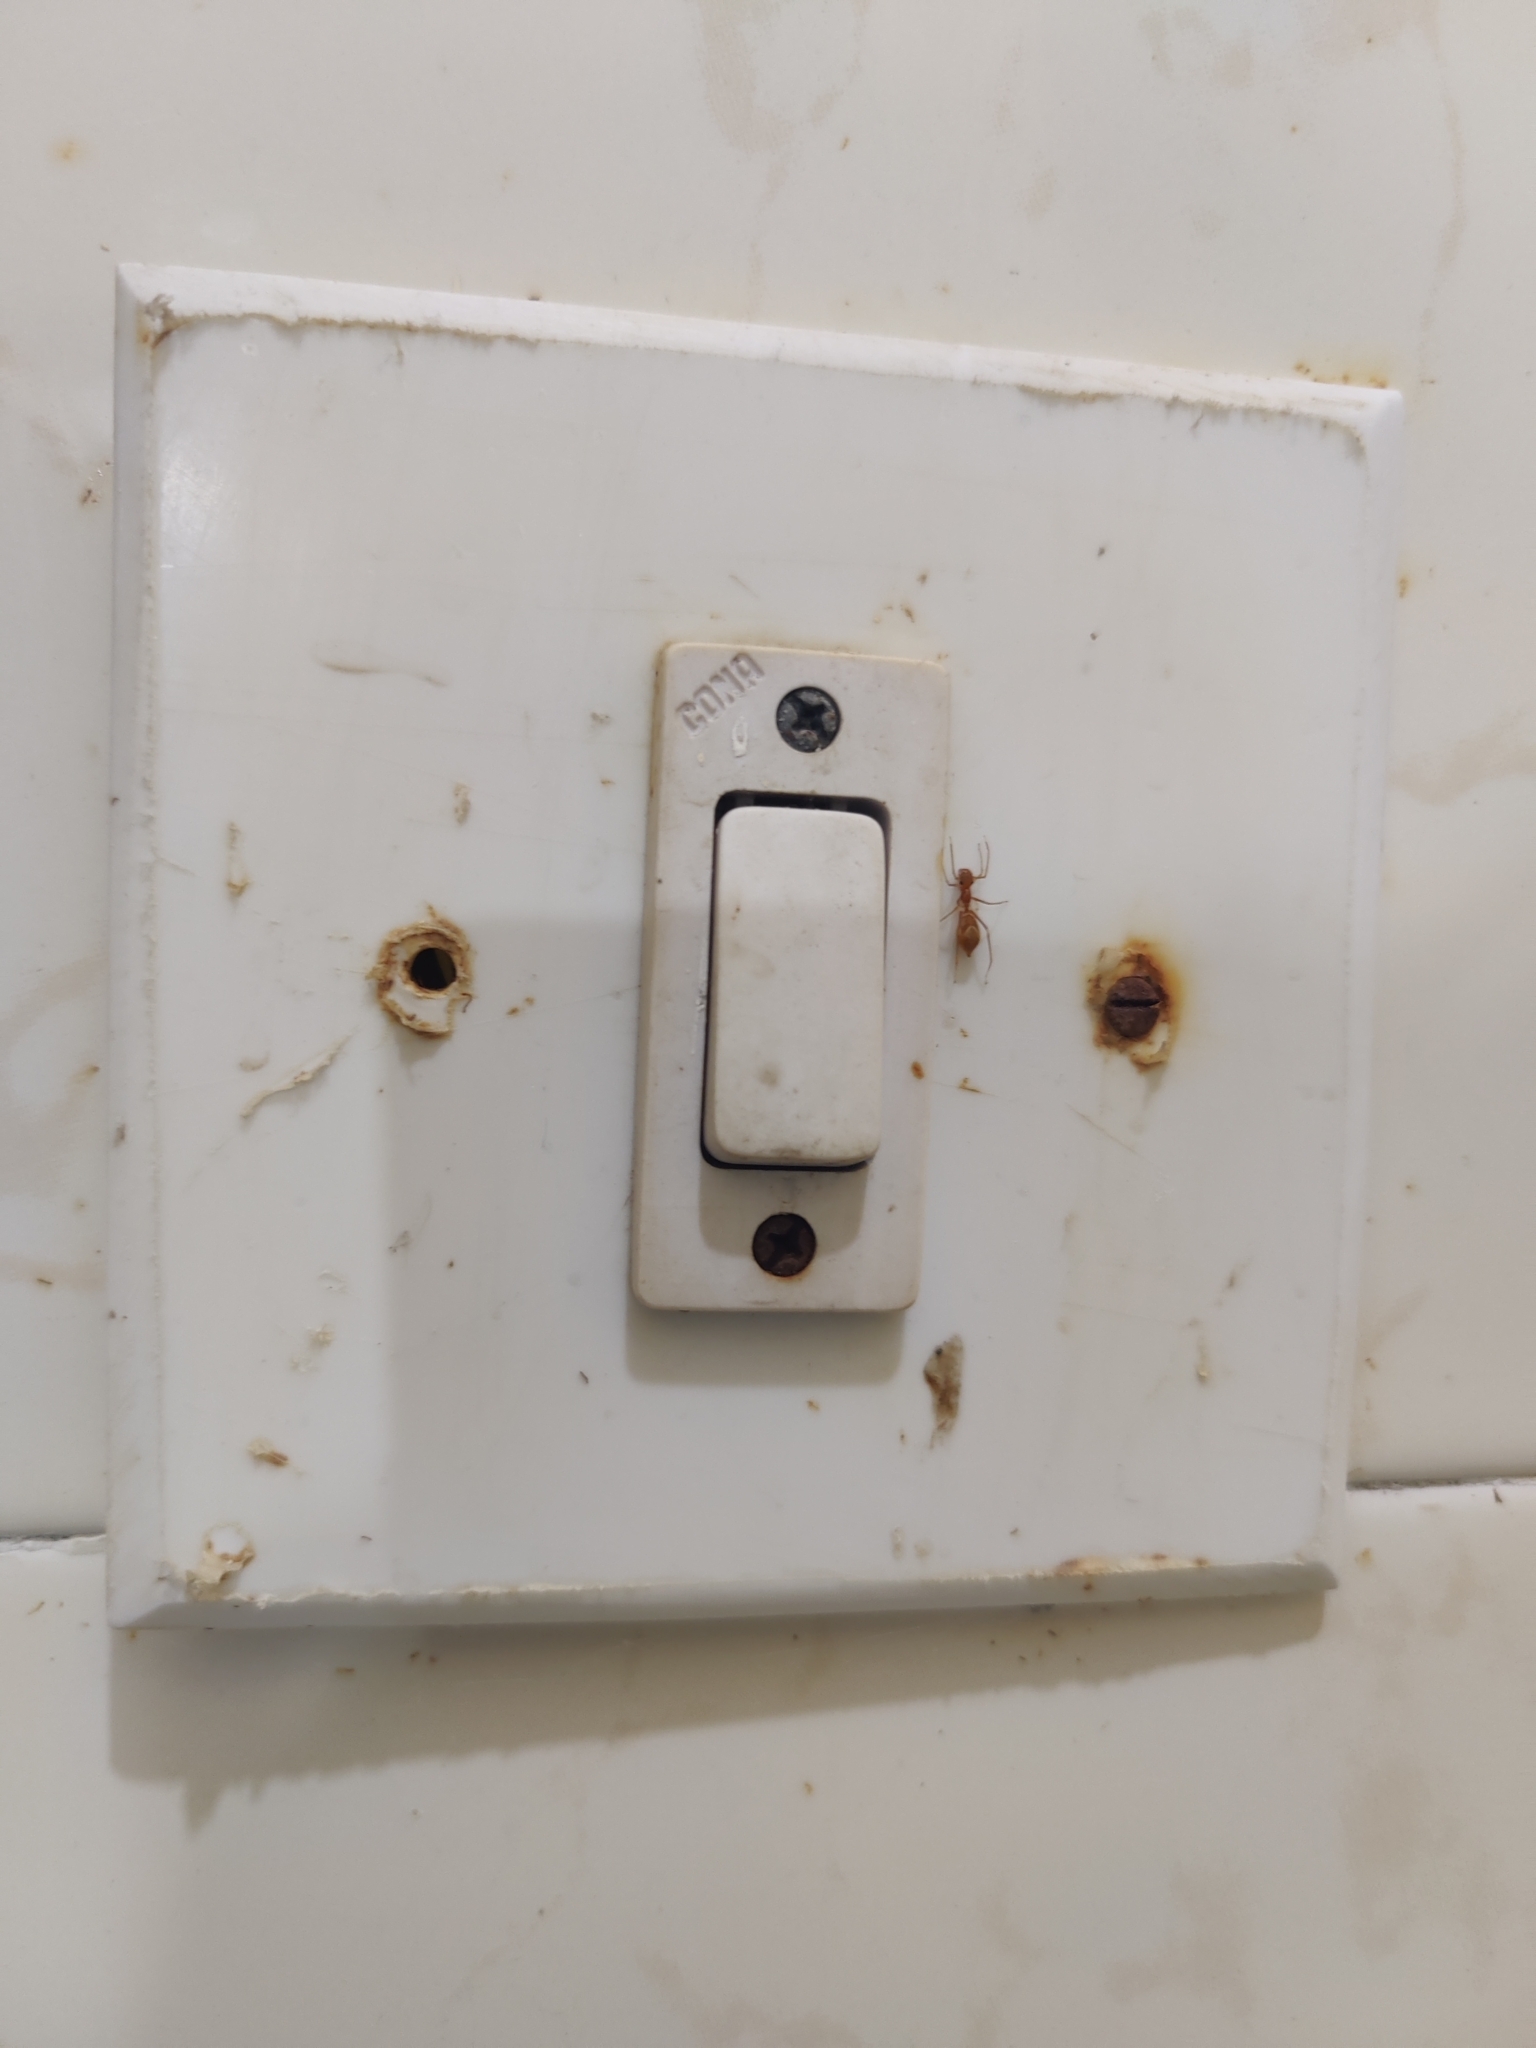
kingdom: Animalia
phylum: Arthropoda
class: Arachnida
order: Araneae
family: Salticidae
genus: Myrmaplata
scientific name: Myrmaplata plataleoides
